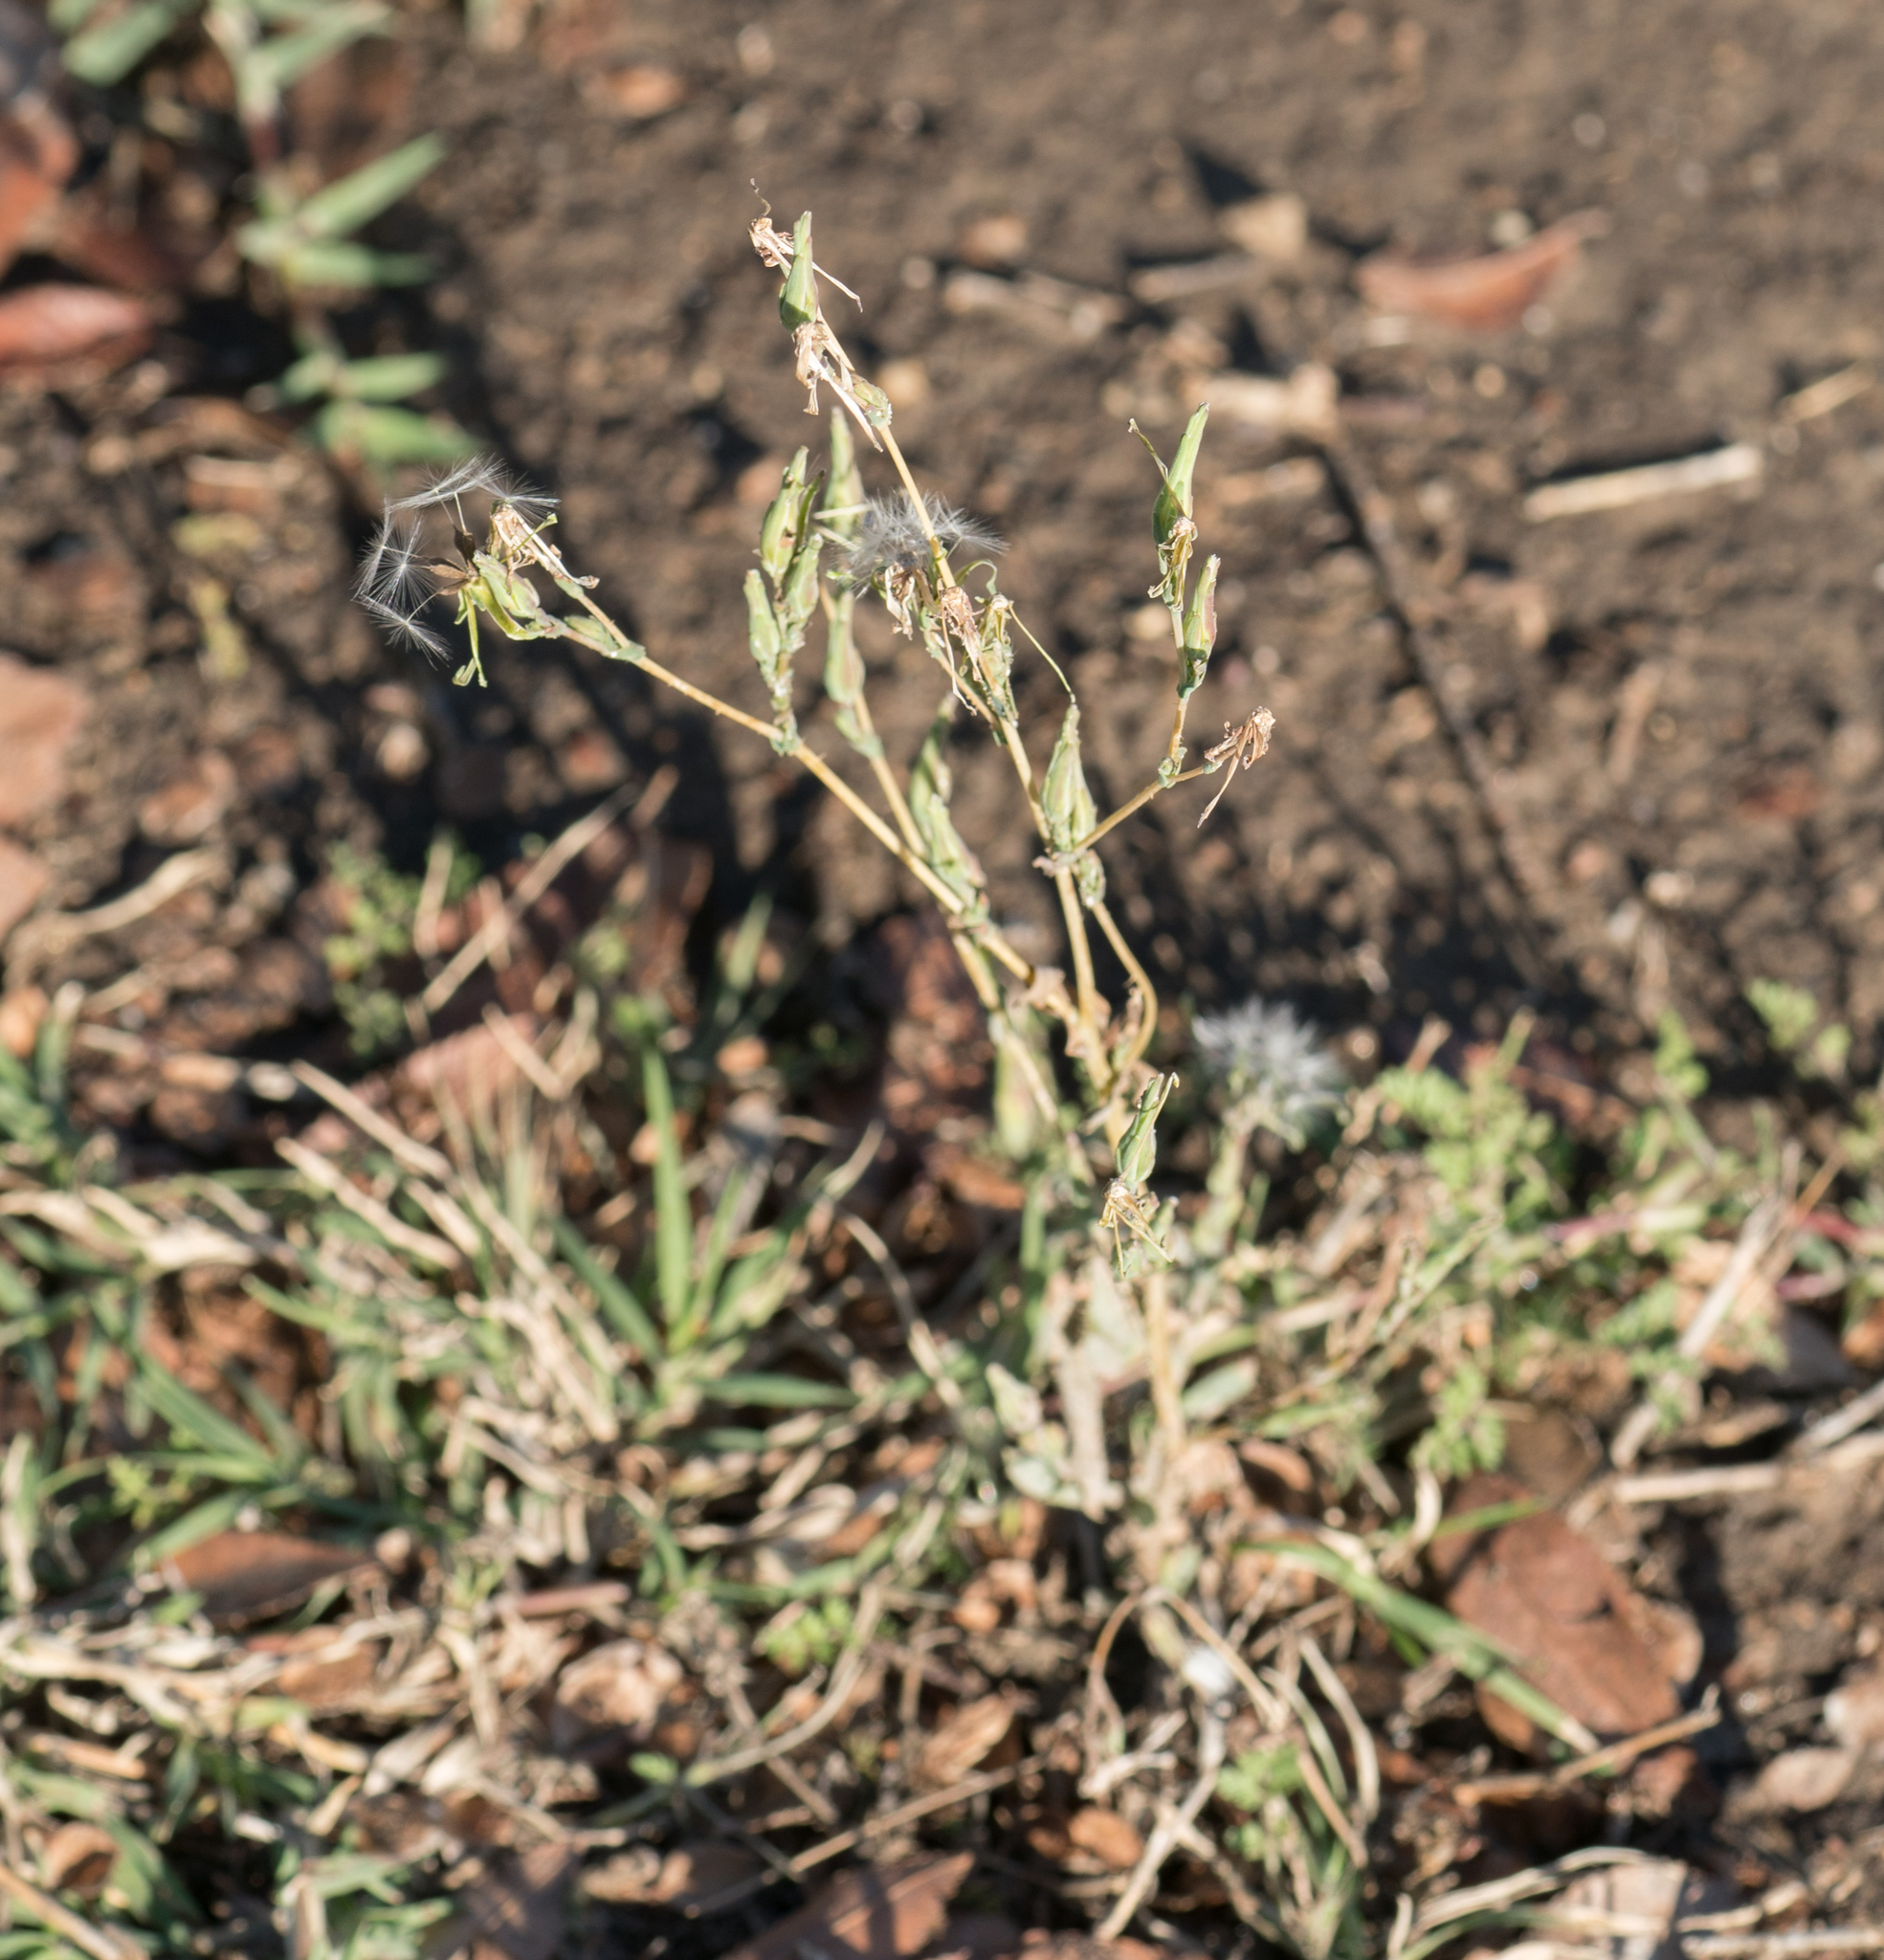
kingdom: Plantae
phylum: Tracheophyta
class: Magnoliopsida
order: Asterales
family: Asteraceae
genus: Lactuca
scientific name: Lactuca serriola
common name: Prickly lettuce
